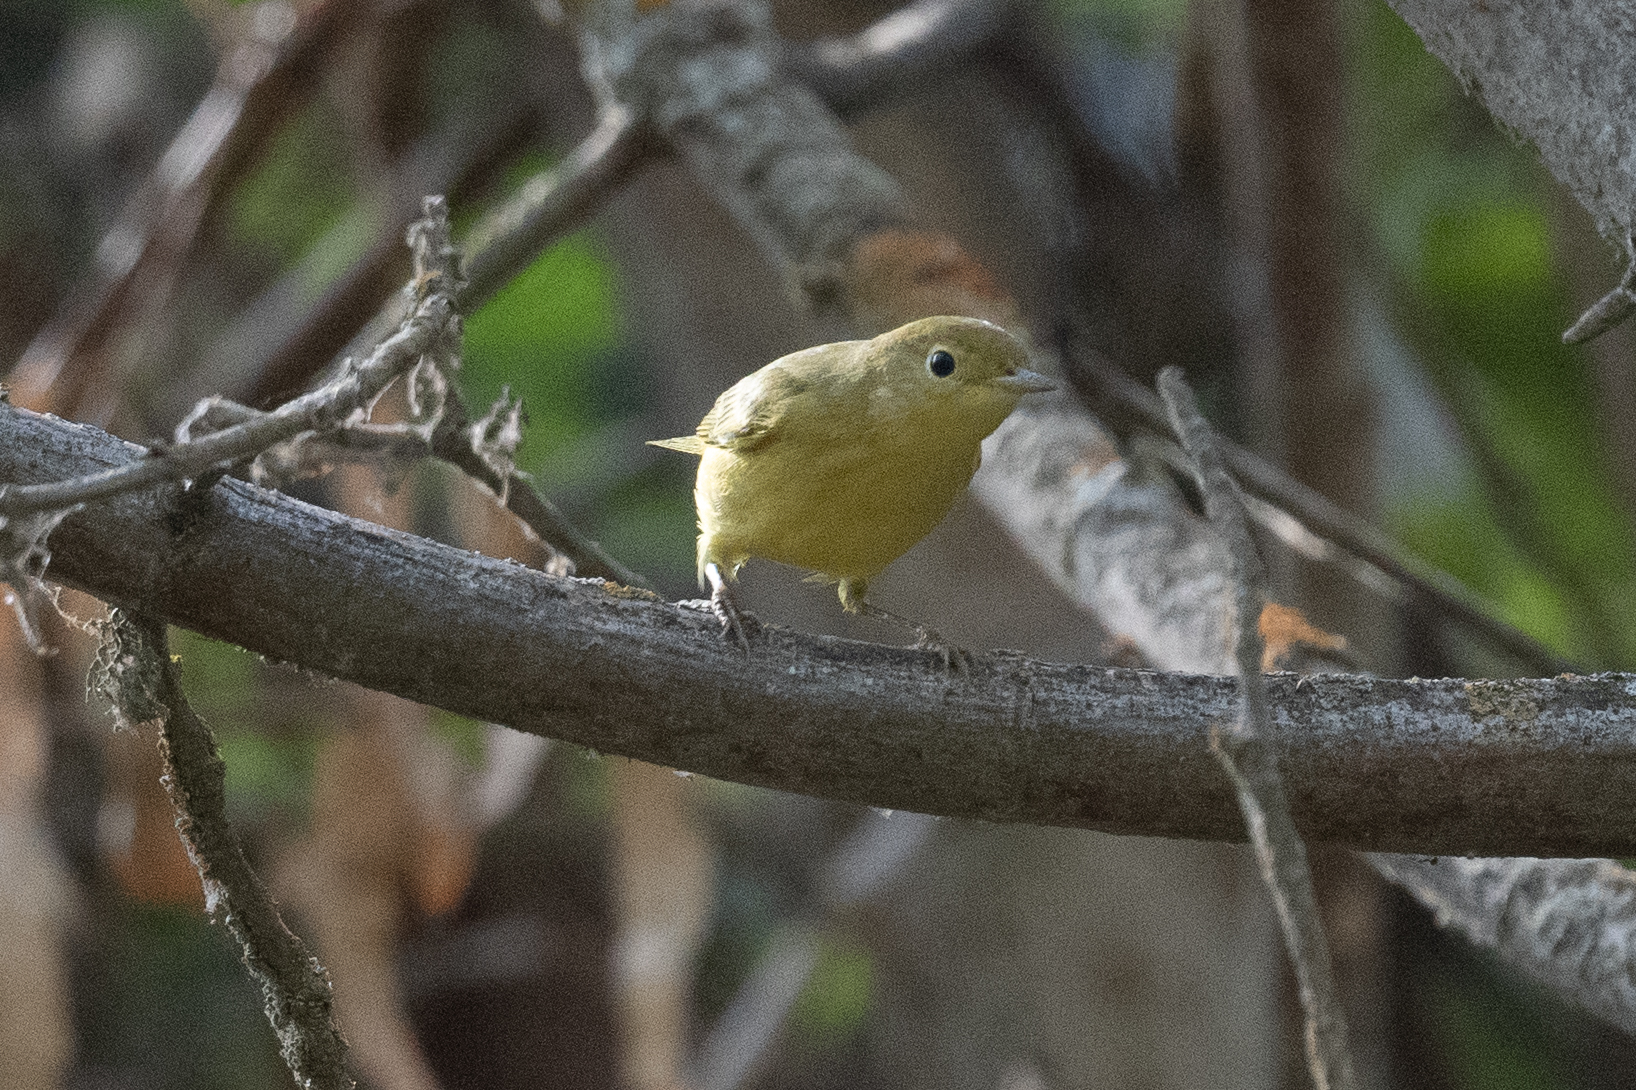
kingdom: Animalia
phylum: Chordata
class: Aves
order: Passeriformes
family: Parulidae
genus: Setophaga
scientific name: Setophaga petechia
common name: Yellow warbler
